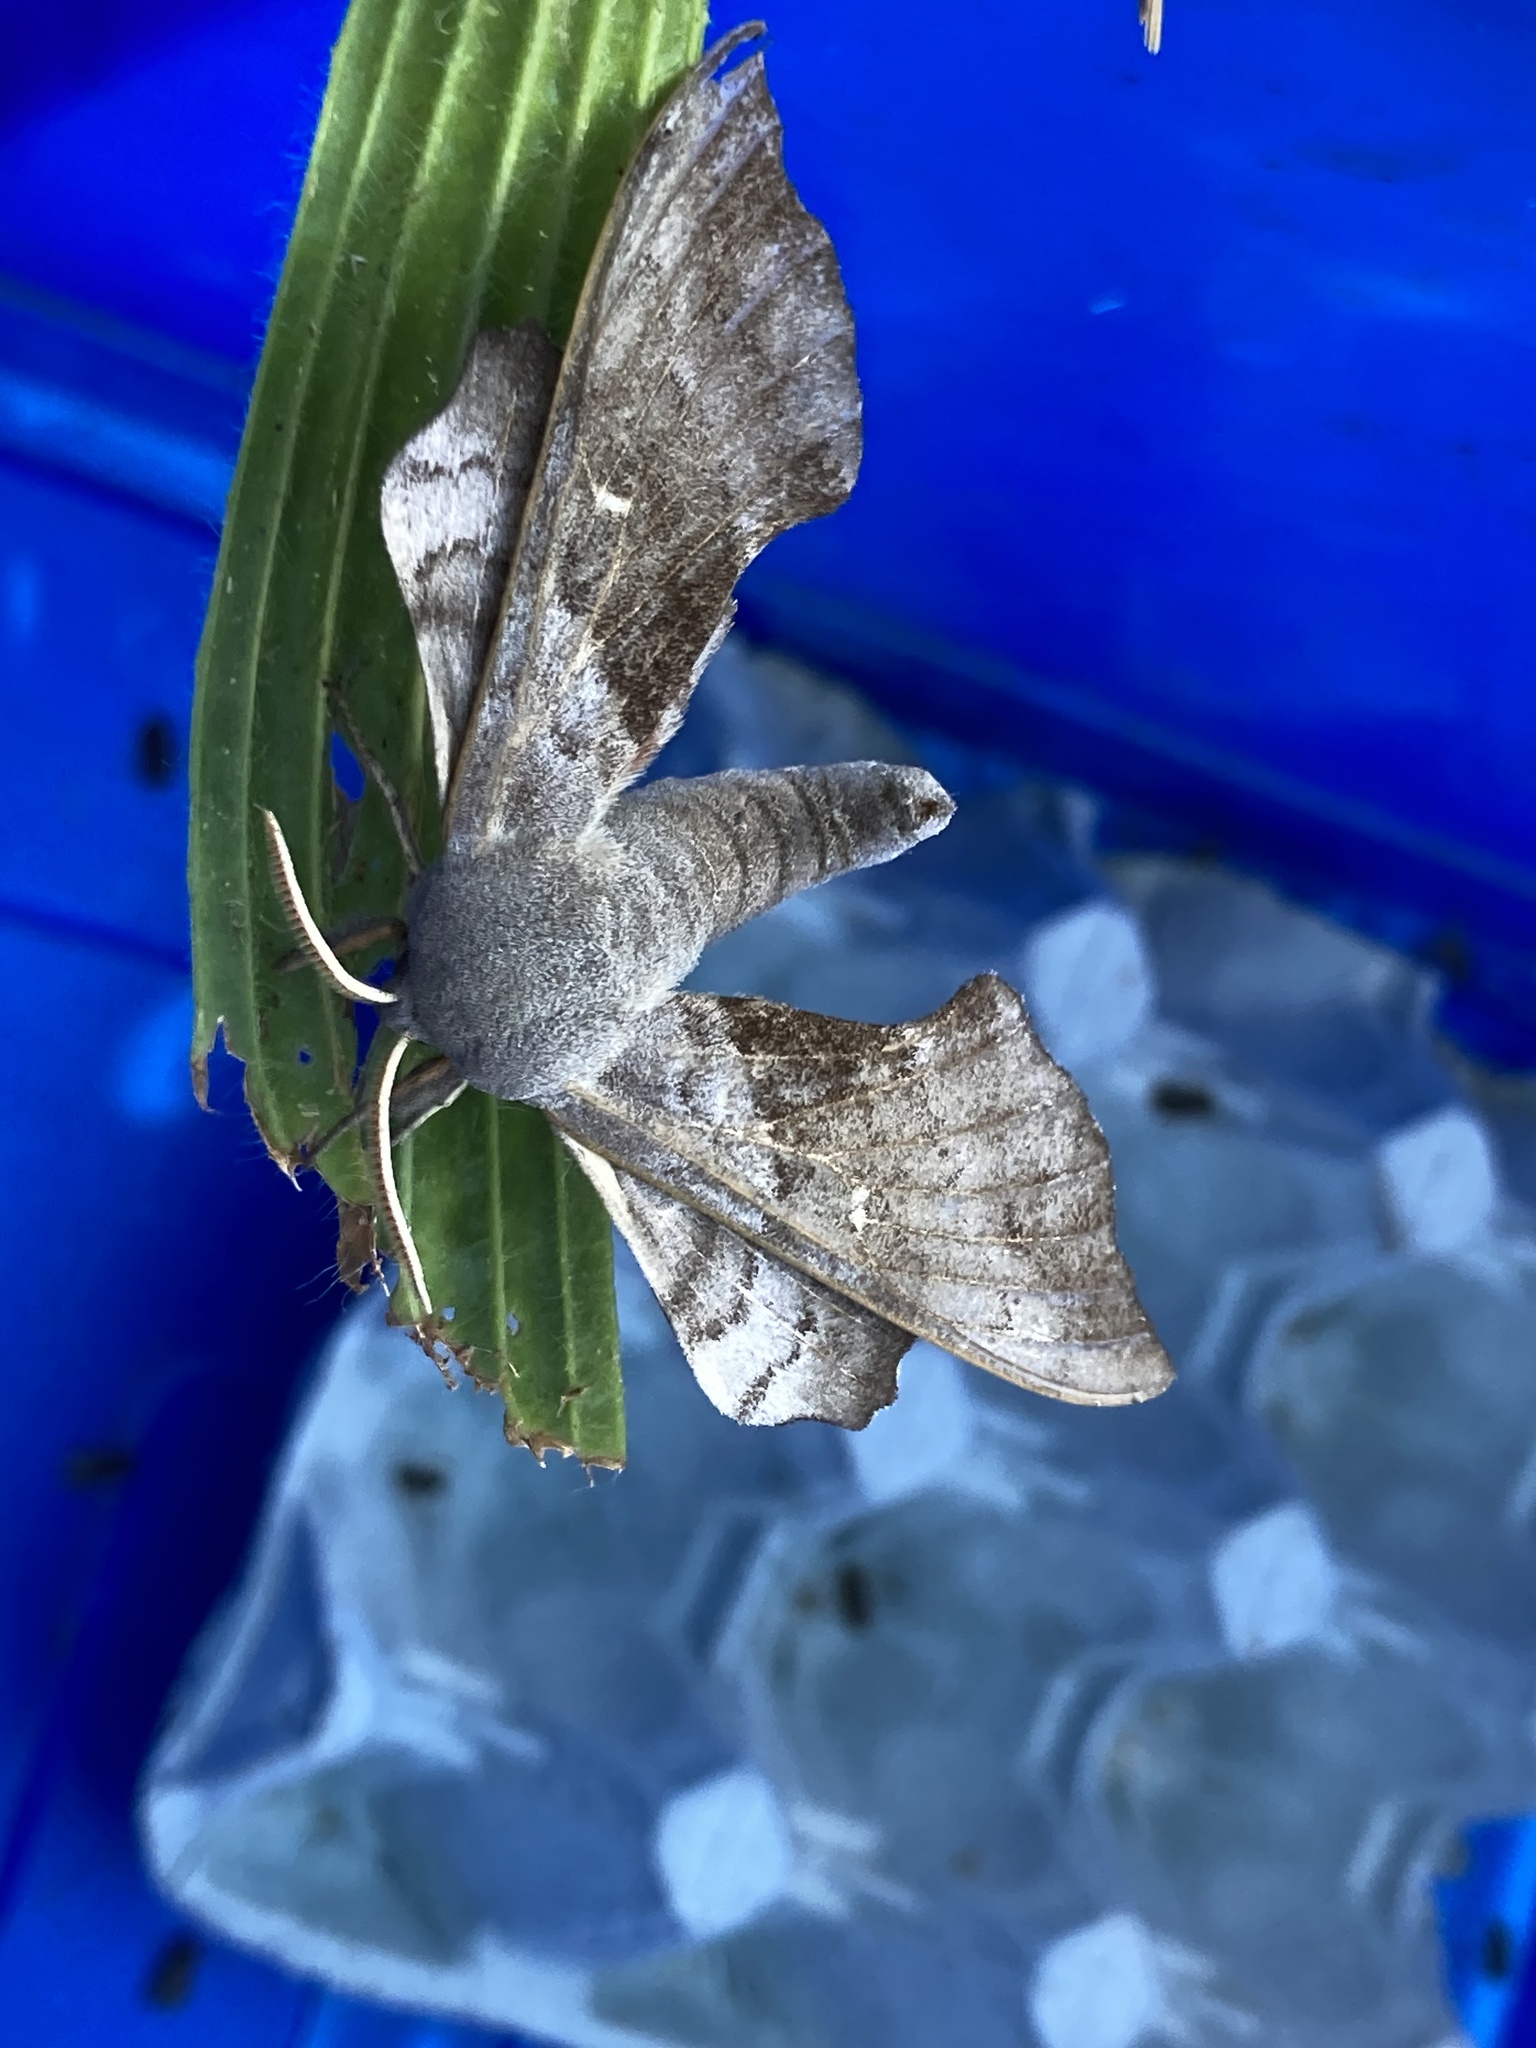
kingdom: Animalia
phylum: Arthropoda
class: Insecta
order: Lepidoptera
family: Sphingidae
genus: Laothoe
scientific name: Laothoe populi
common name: Poplar hawk-moth
